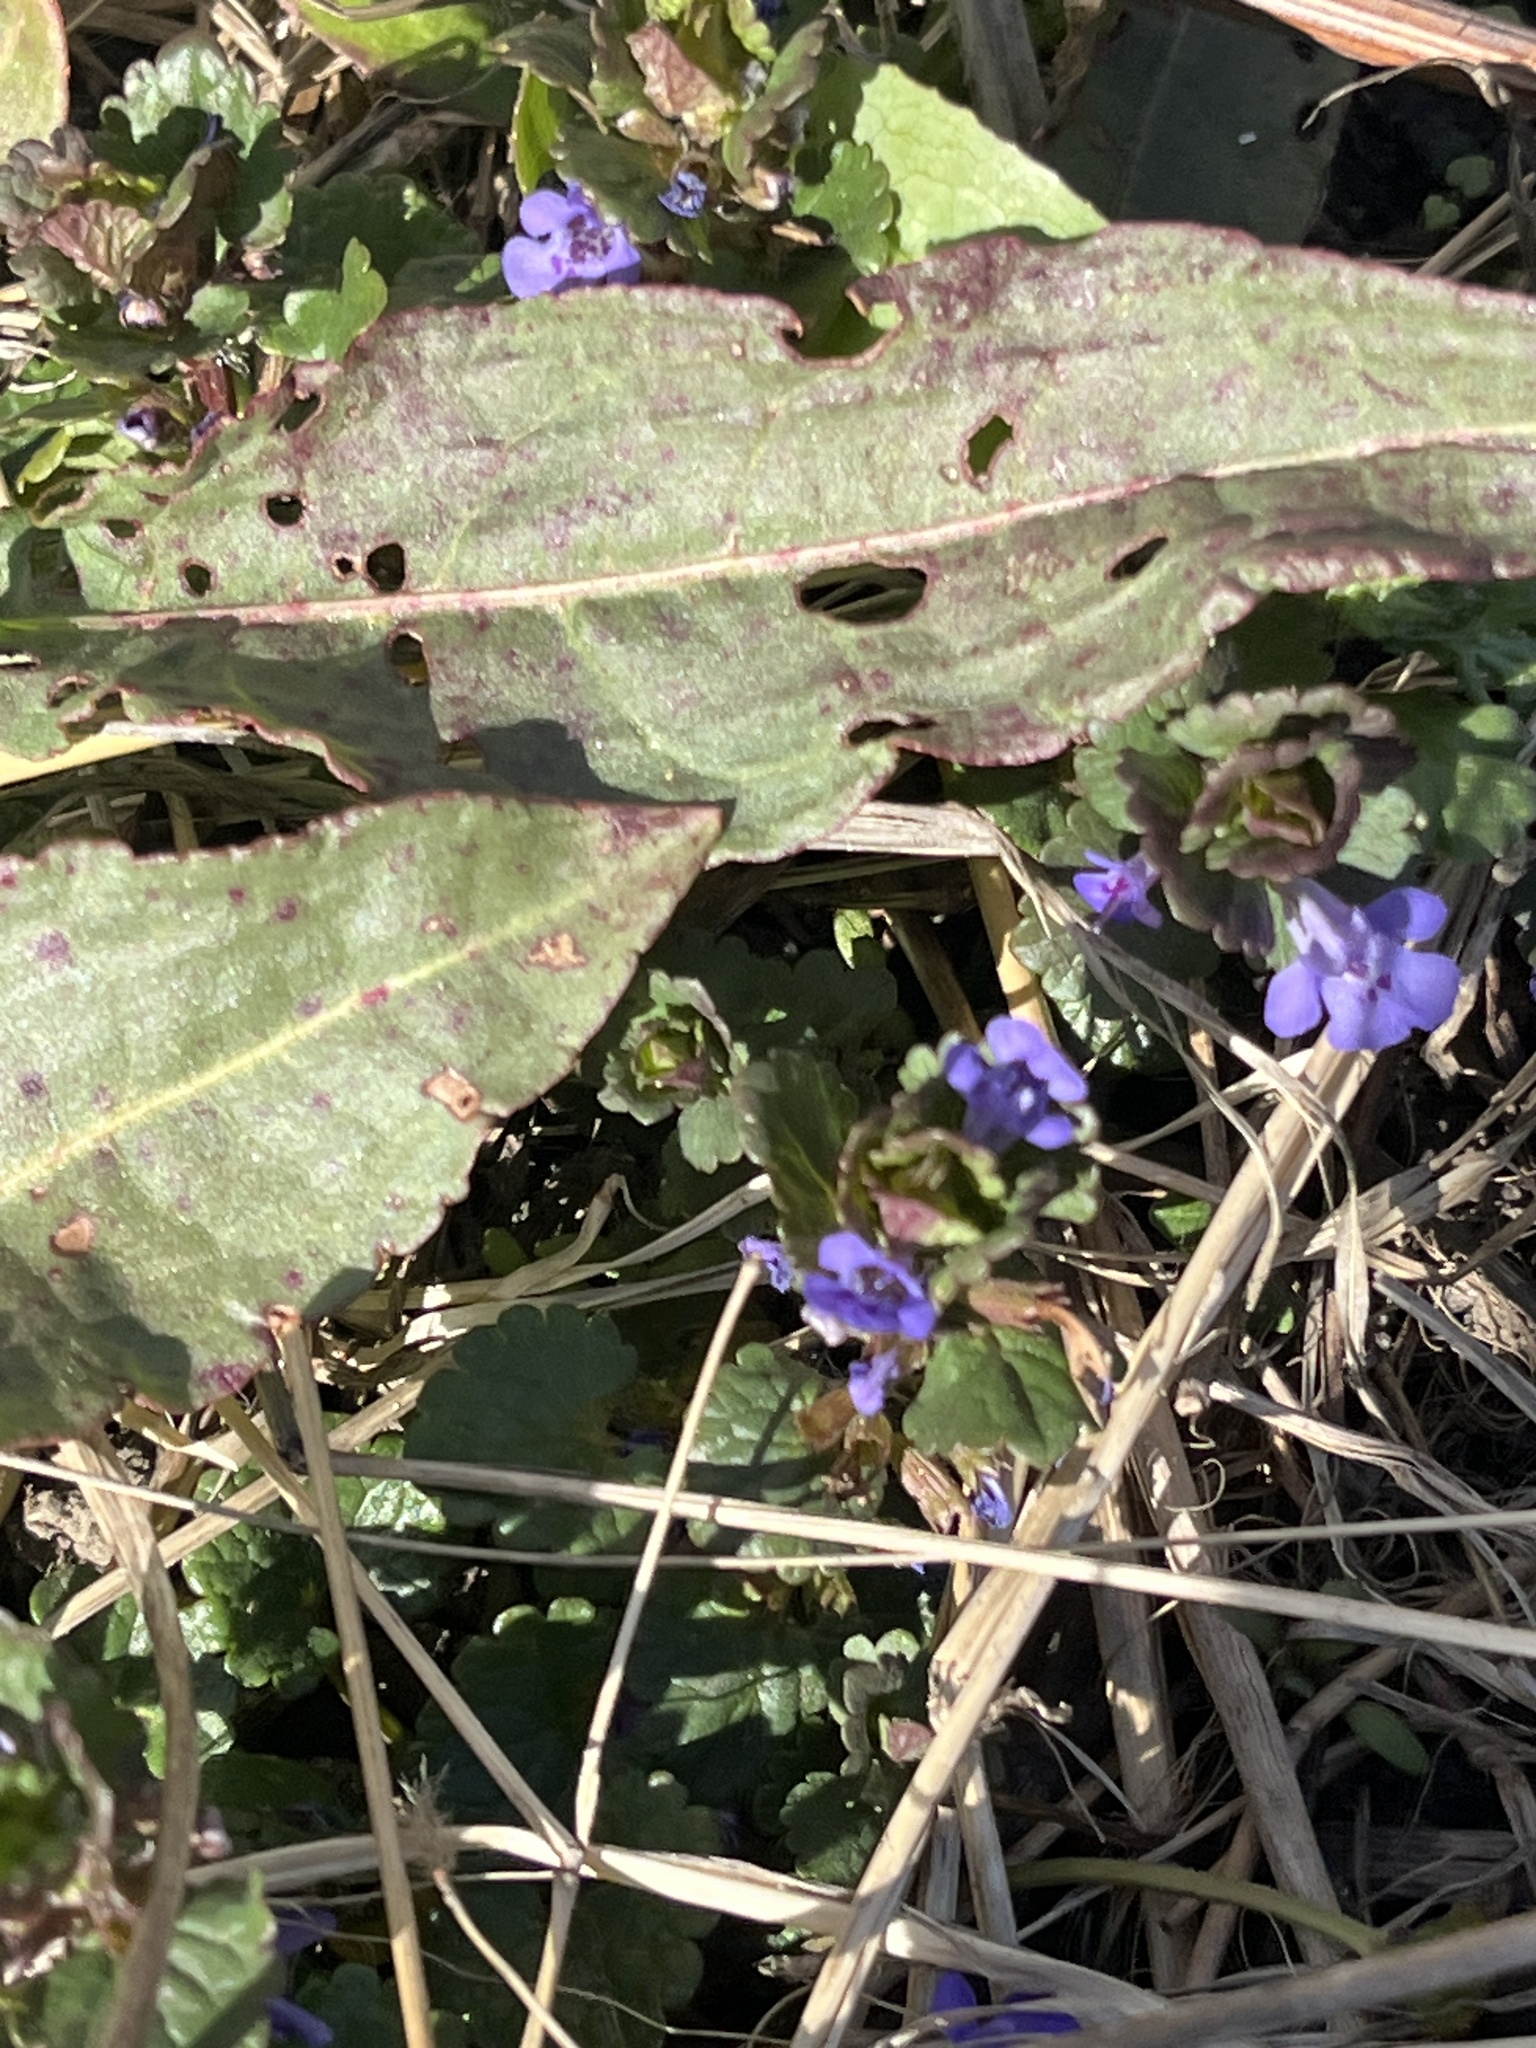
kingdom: Plantae
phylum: Tracheophyta
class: Magnoliopsida
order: Lamiales
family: Lamiaceae
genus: Glechoma
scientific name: Glechoma hederacea
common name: Ground ivy
